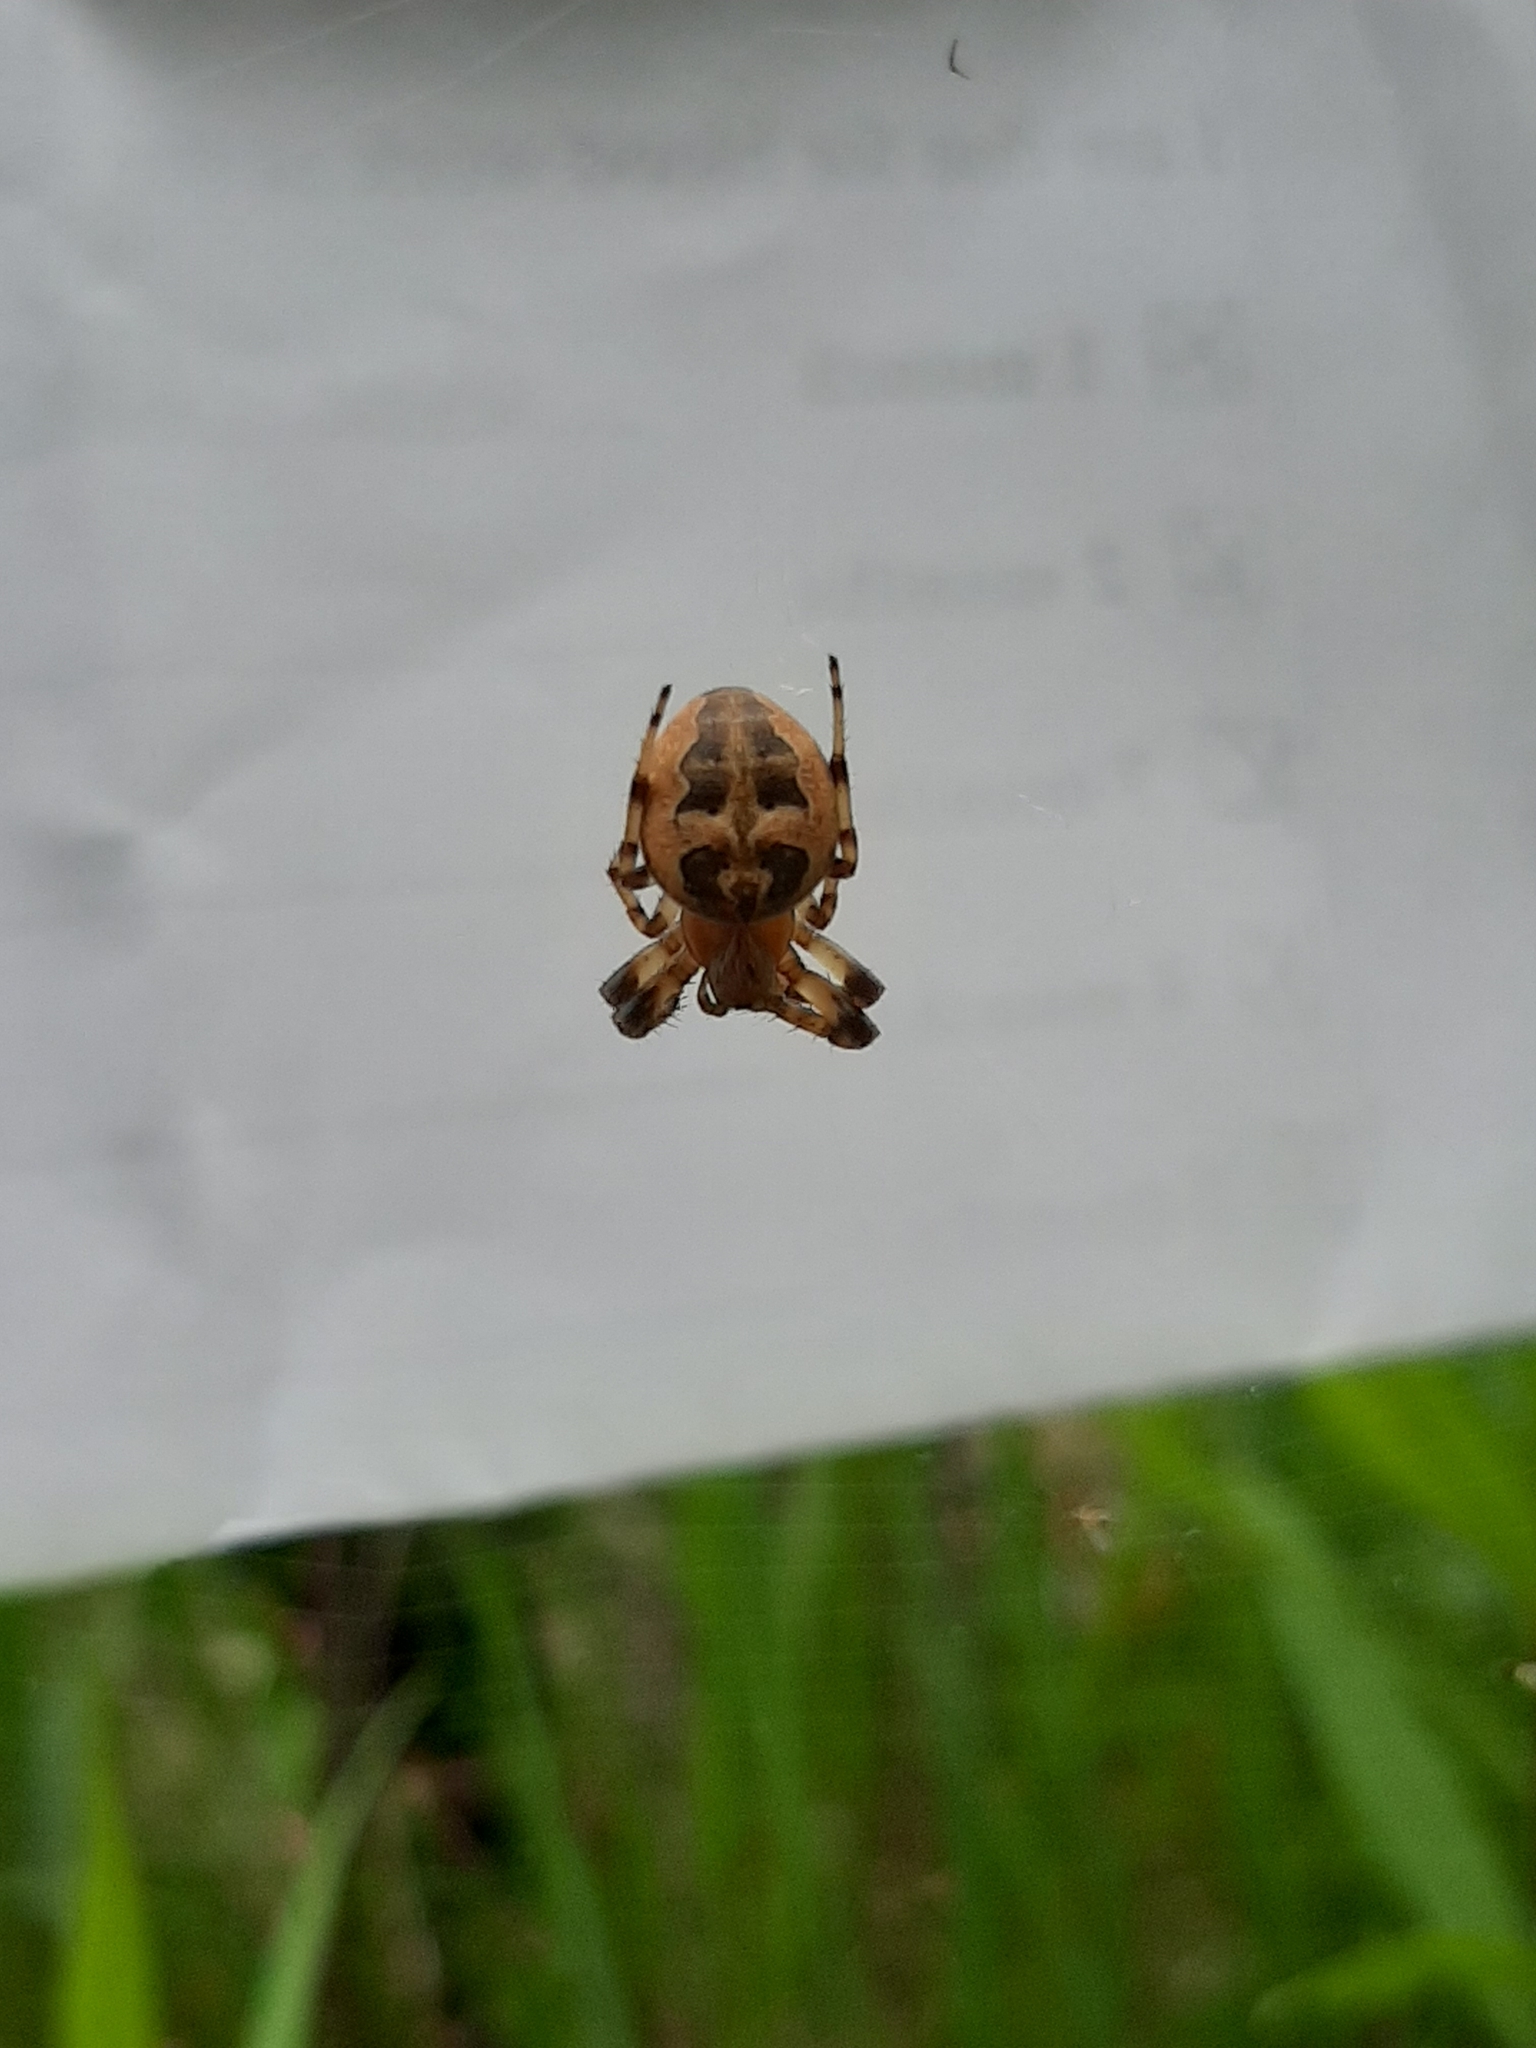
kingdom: Animalia
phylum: Arthropoda
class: Arachnida
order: Araneae
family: Araneidae
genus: Larinioides
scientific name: Larinioides cornutus
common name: Furrow orbweaver
